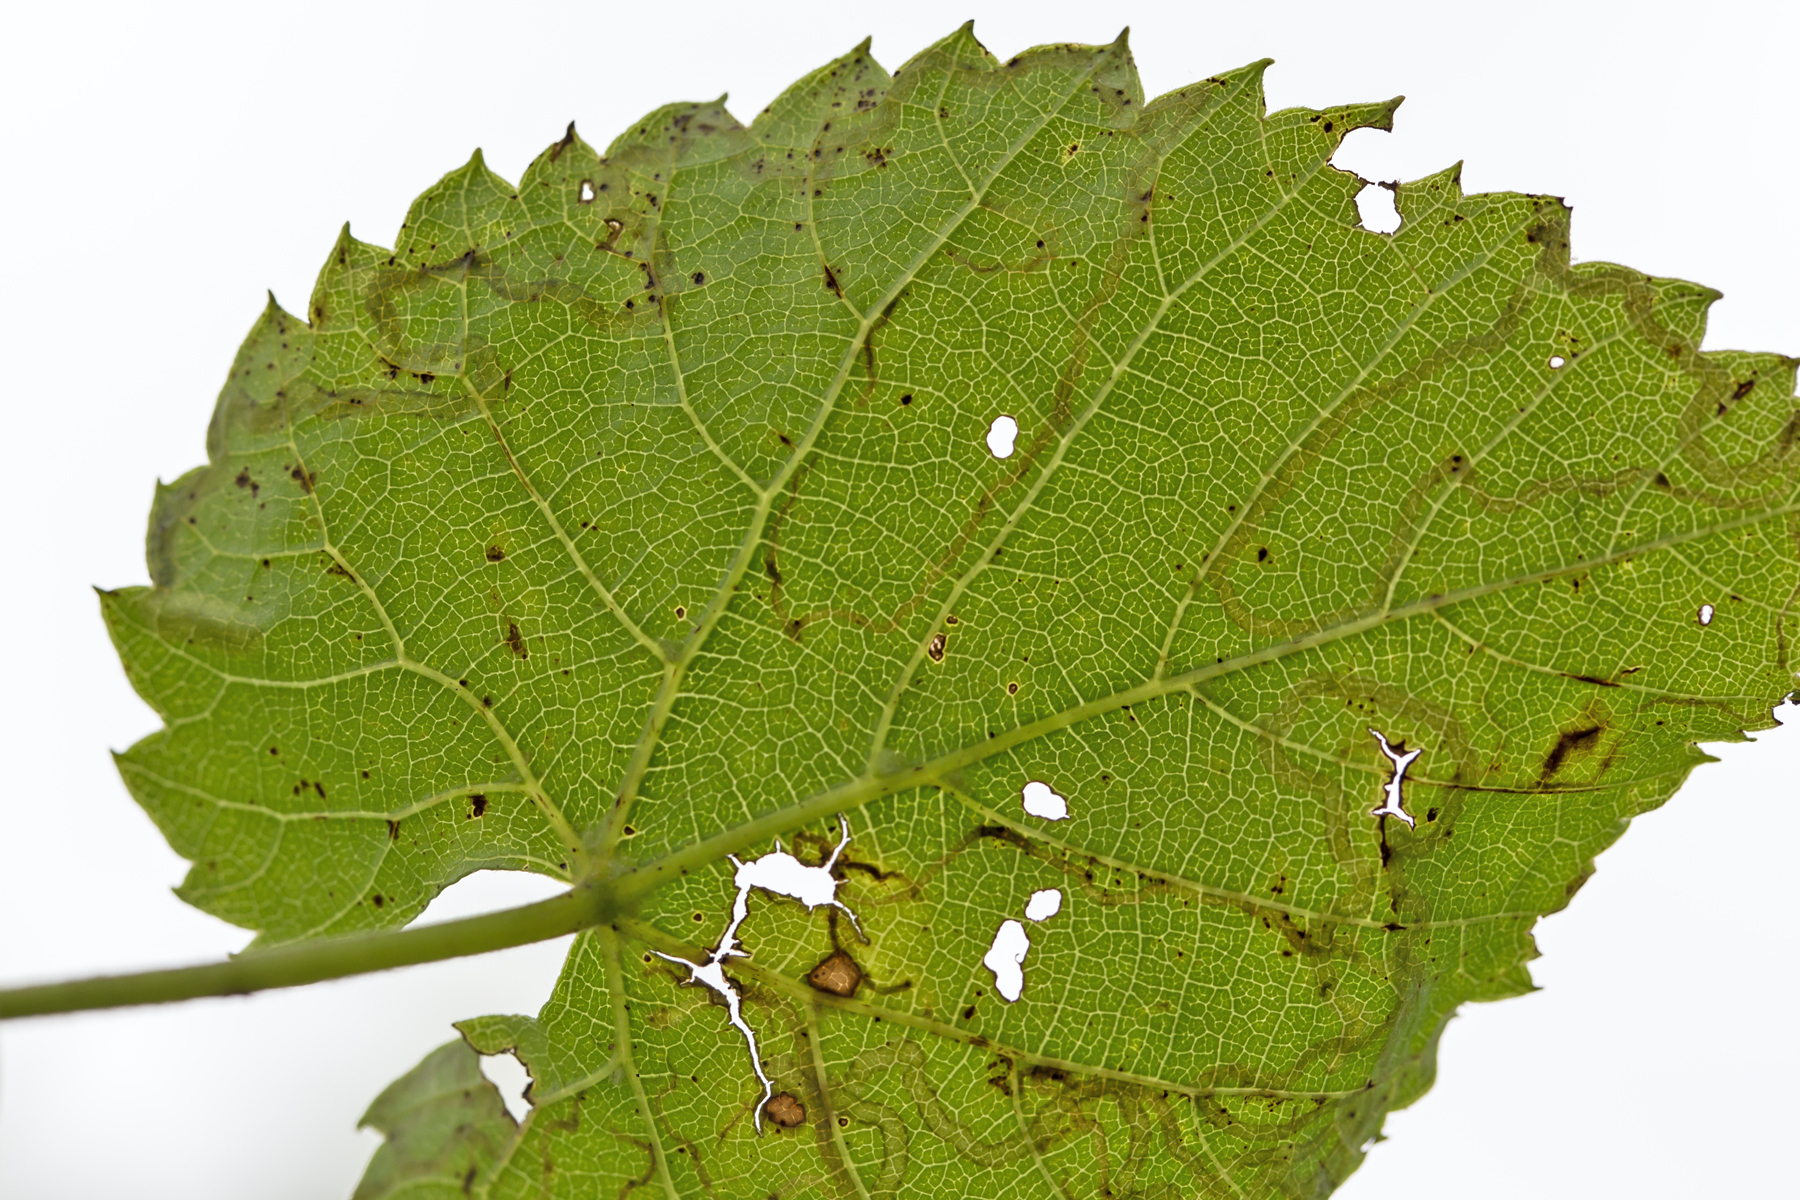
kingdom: Animalia
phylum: Arthropoda
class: Insecta
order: Lepidoptera
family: Gracillariidae
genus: Phyllocnistis
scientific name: Phyllocnistis vitifoliella
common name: Grape leaf-miner moth
